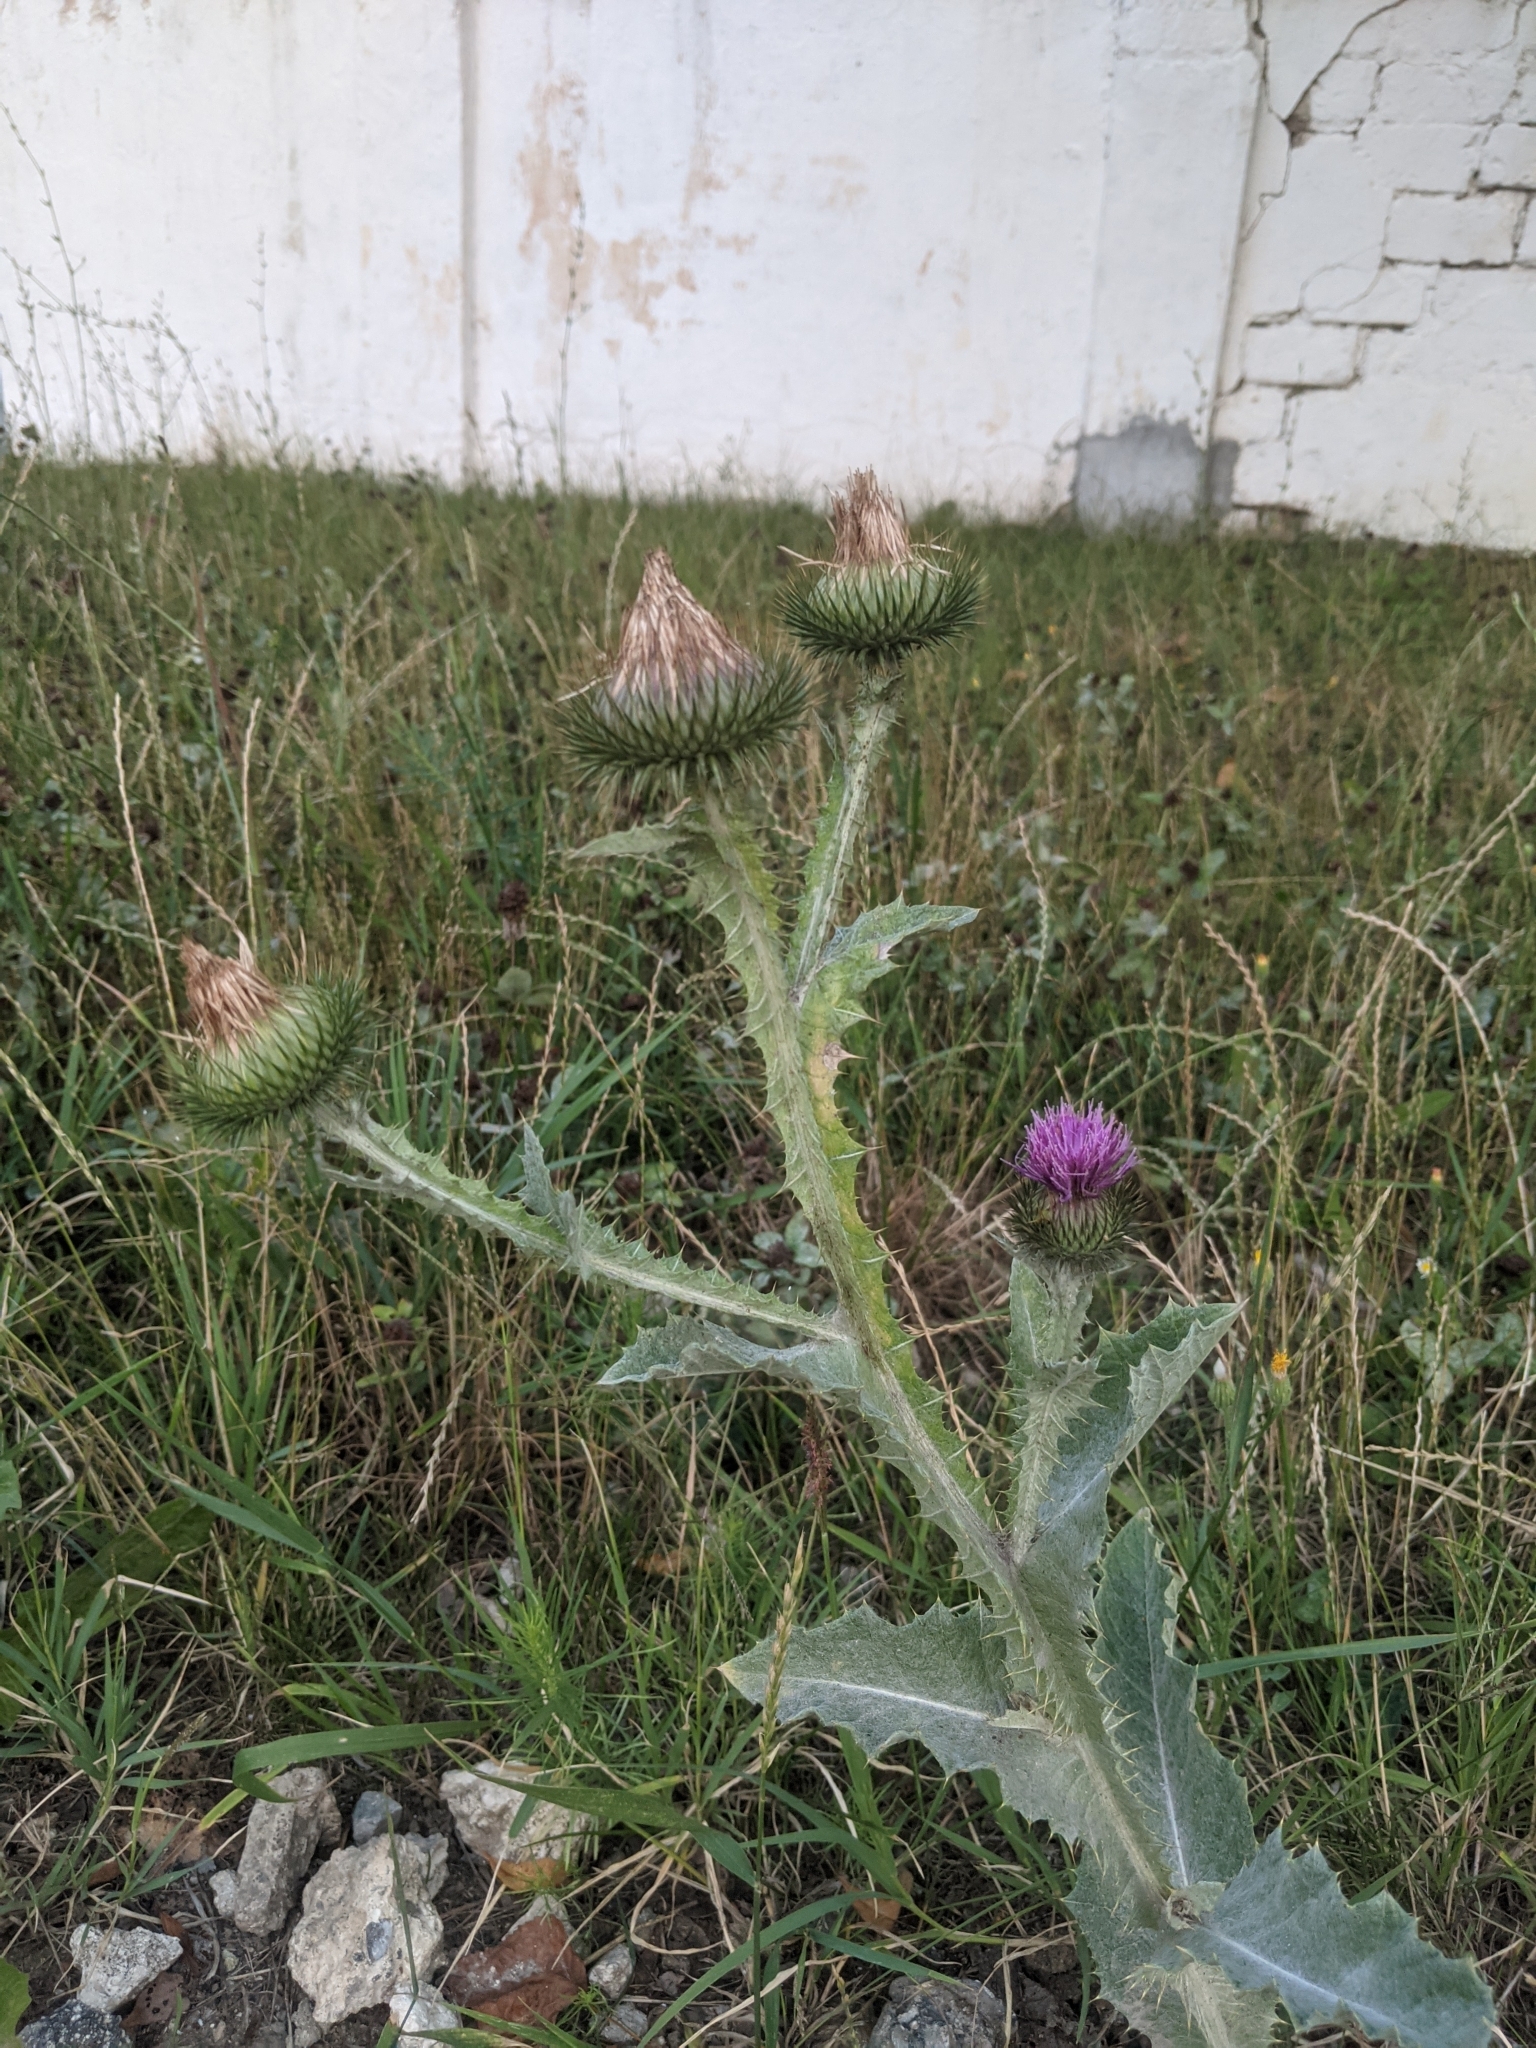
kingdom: Plantae
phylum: Tracheophyta
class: Magnoliopsida
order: Asterales
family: Asteraceae
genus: Onopordum
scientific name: Onopordum acanthium
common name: Scotch thistle
